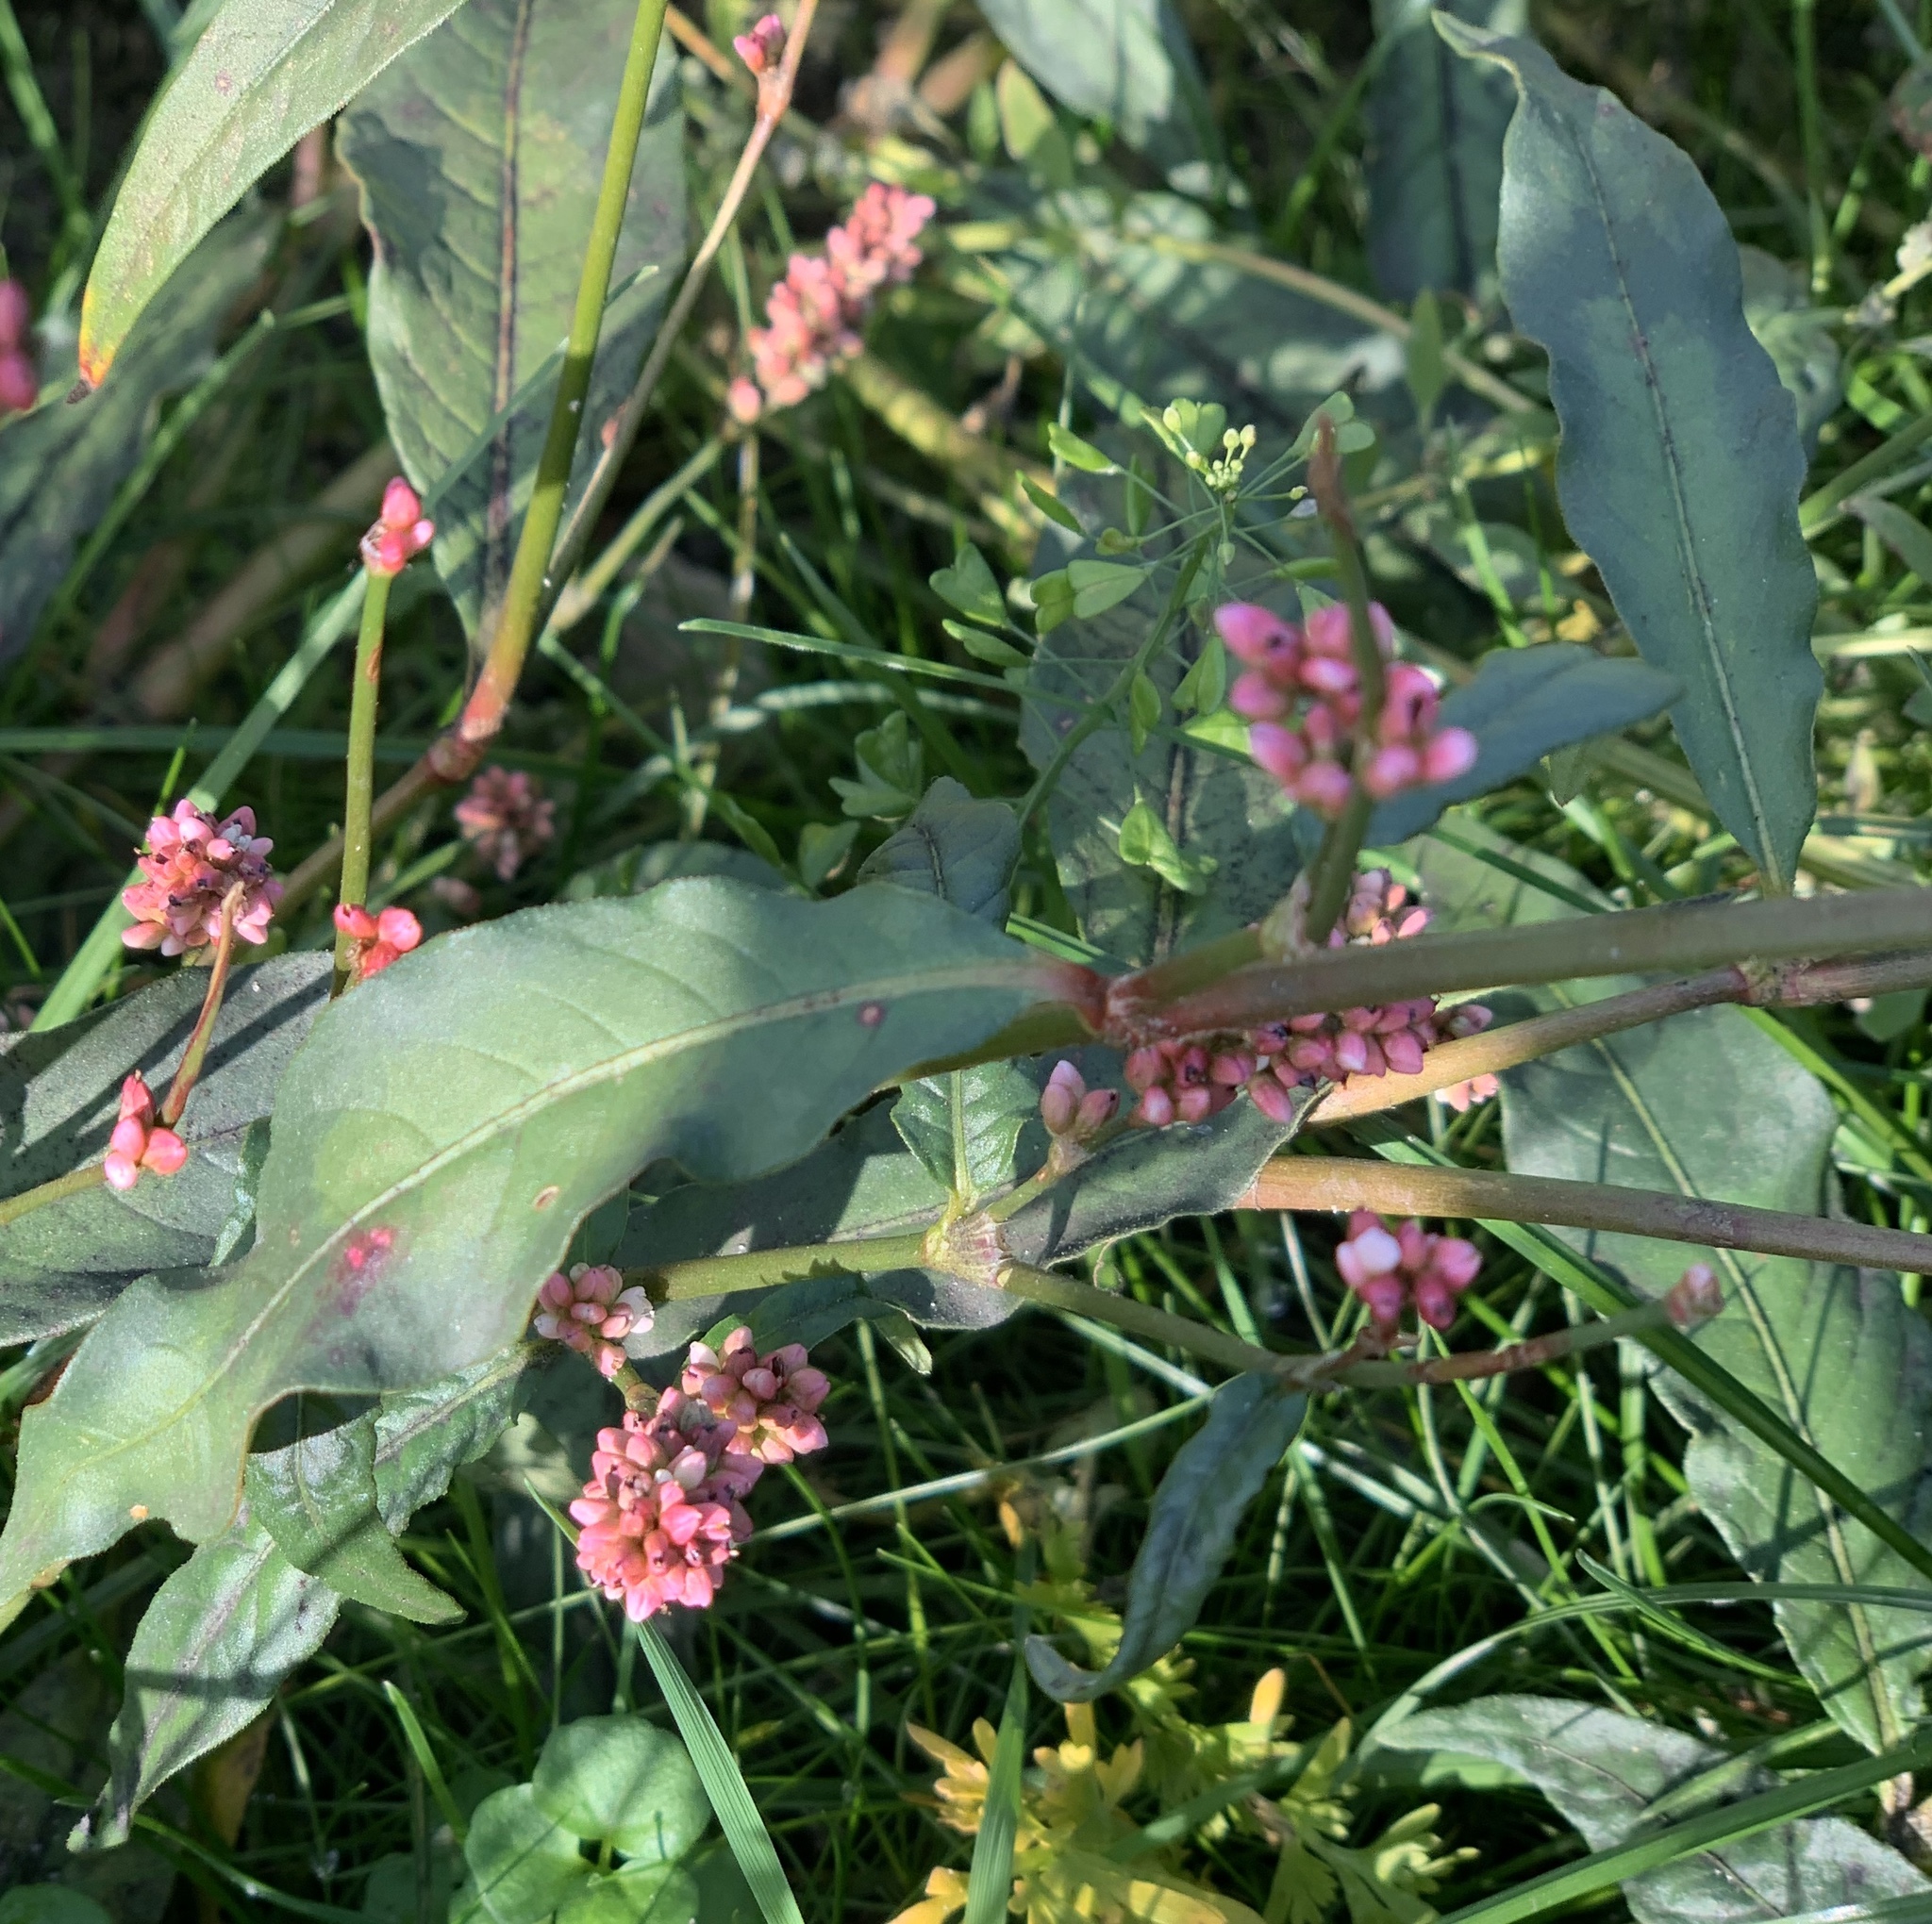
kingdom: Plantae
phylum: Tracheophyta
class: Magnoliopsida
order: Caryophyllales
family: Polygonaceae
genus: Persicaria
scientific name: Persicaria maculosa
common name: Redshank
